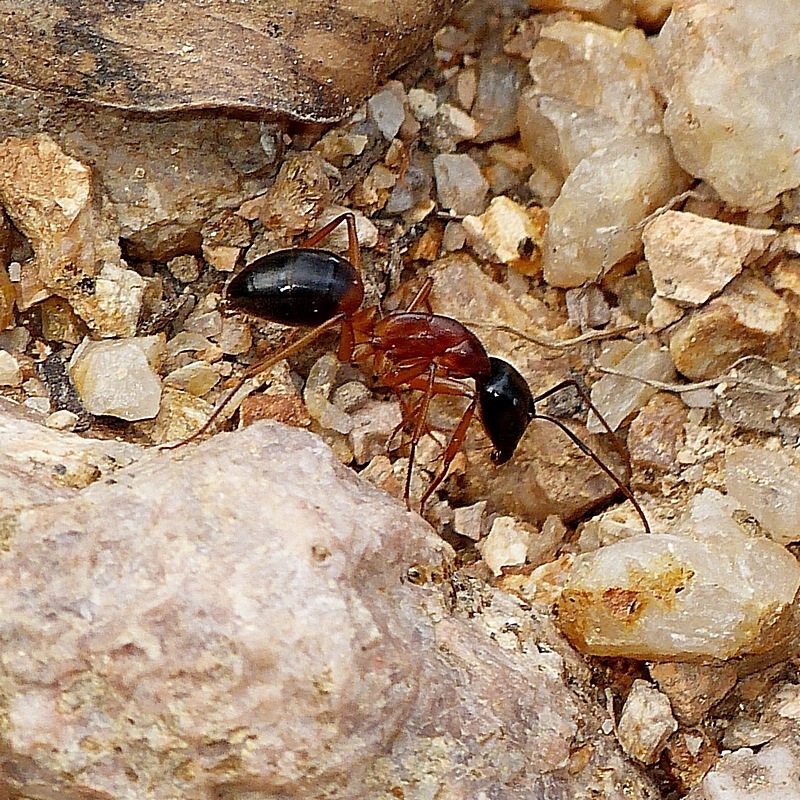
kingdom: Animalia
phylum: Arthropoda
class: Insecta
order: Hymenoptera
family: Formicidae
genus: Camponotus
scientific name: Camponotus consobrinus
